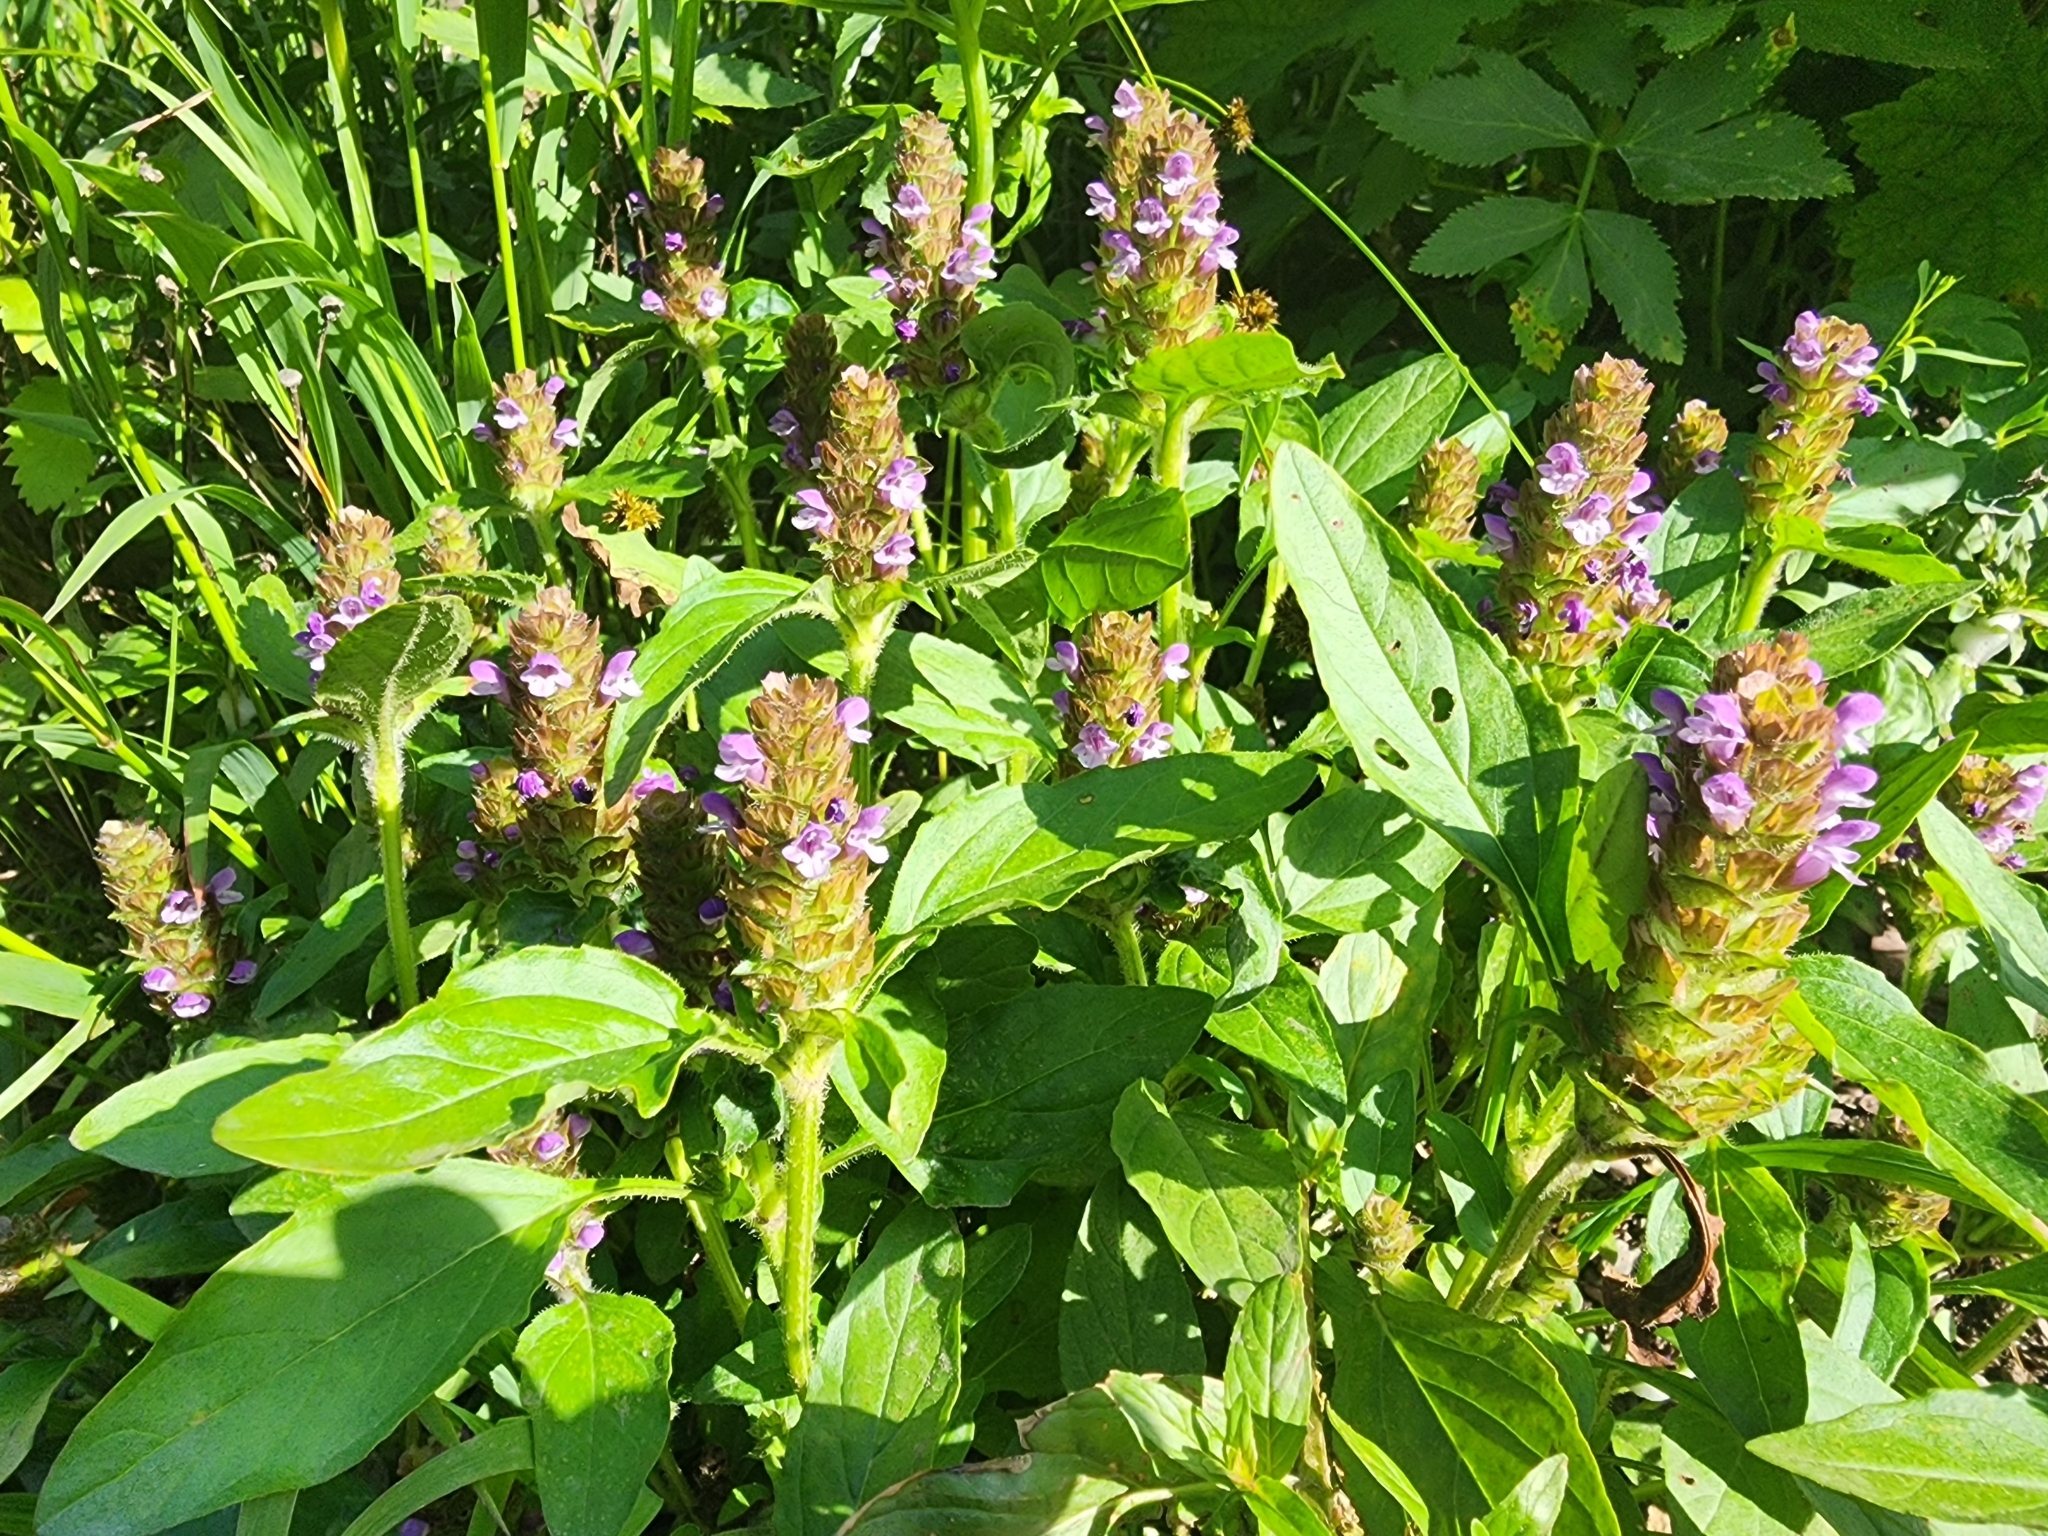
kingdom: Plantae
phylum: Tracheophyta
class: Magnoliopsida
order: Lamiales
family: Lamiaceae
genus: Prunella
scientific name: Prunella vulgaris
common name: Heal-all
